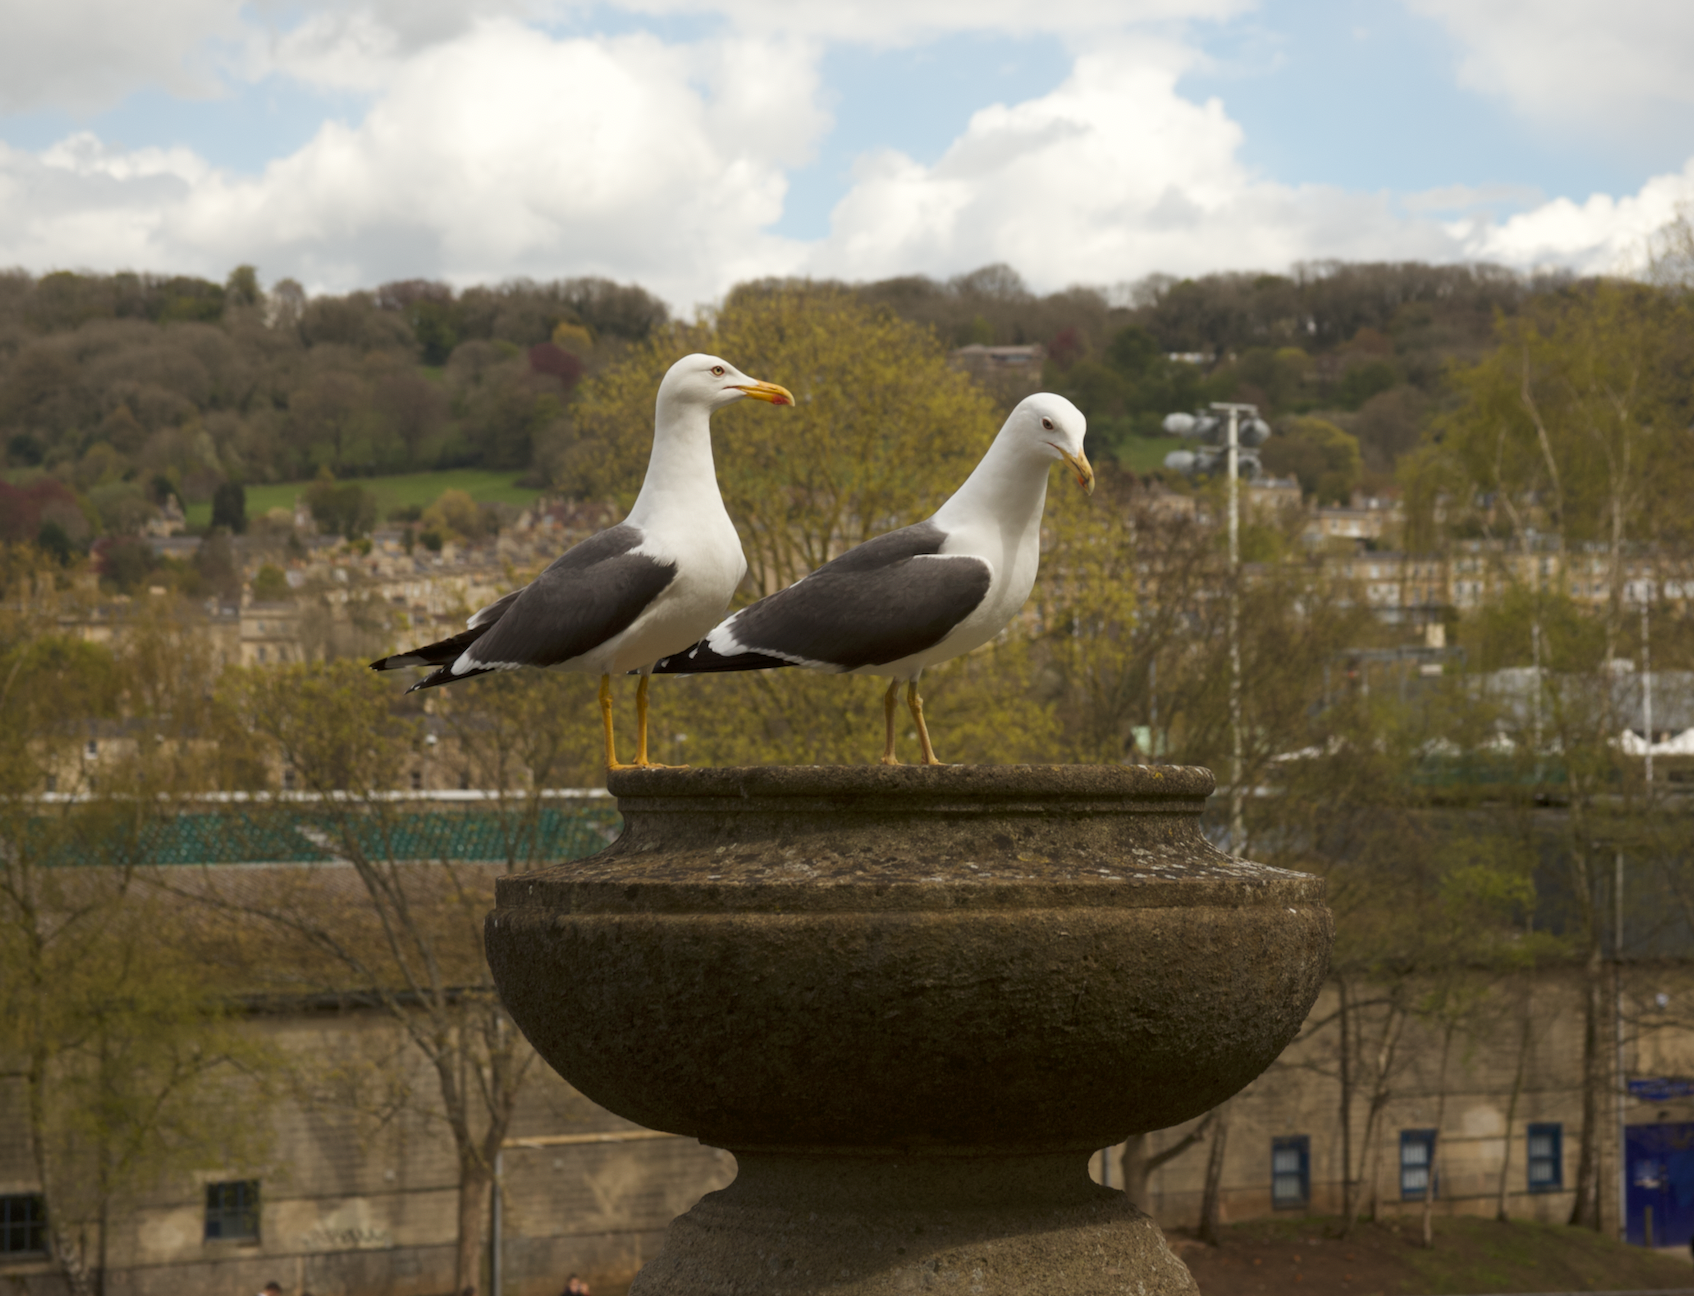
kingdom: Animalia
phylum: Chordata
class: Aves
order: Charadriiformes
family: Laridae
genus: Larus
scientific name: Larus fuscus
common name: Lesser black-backed gull
